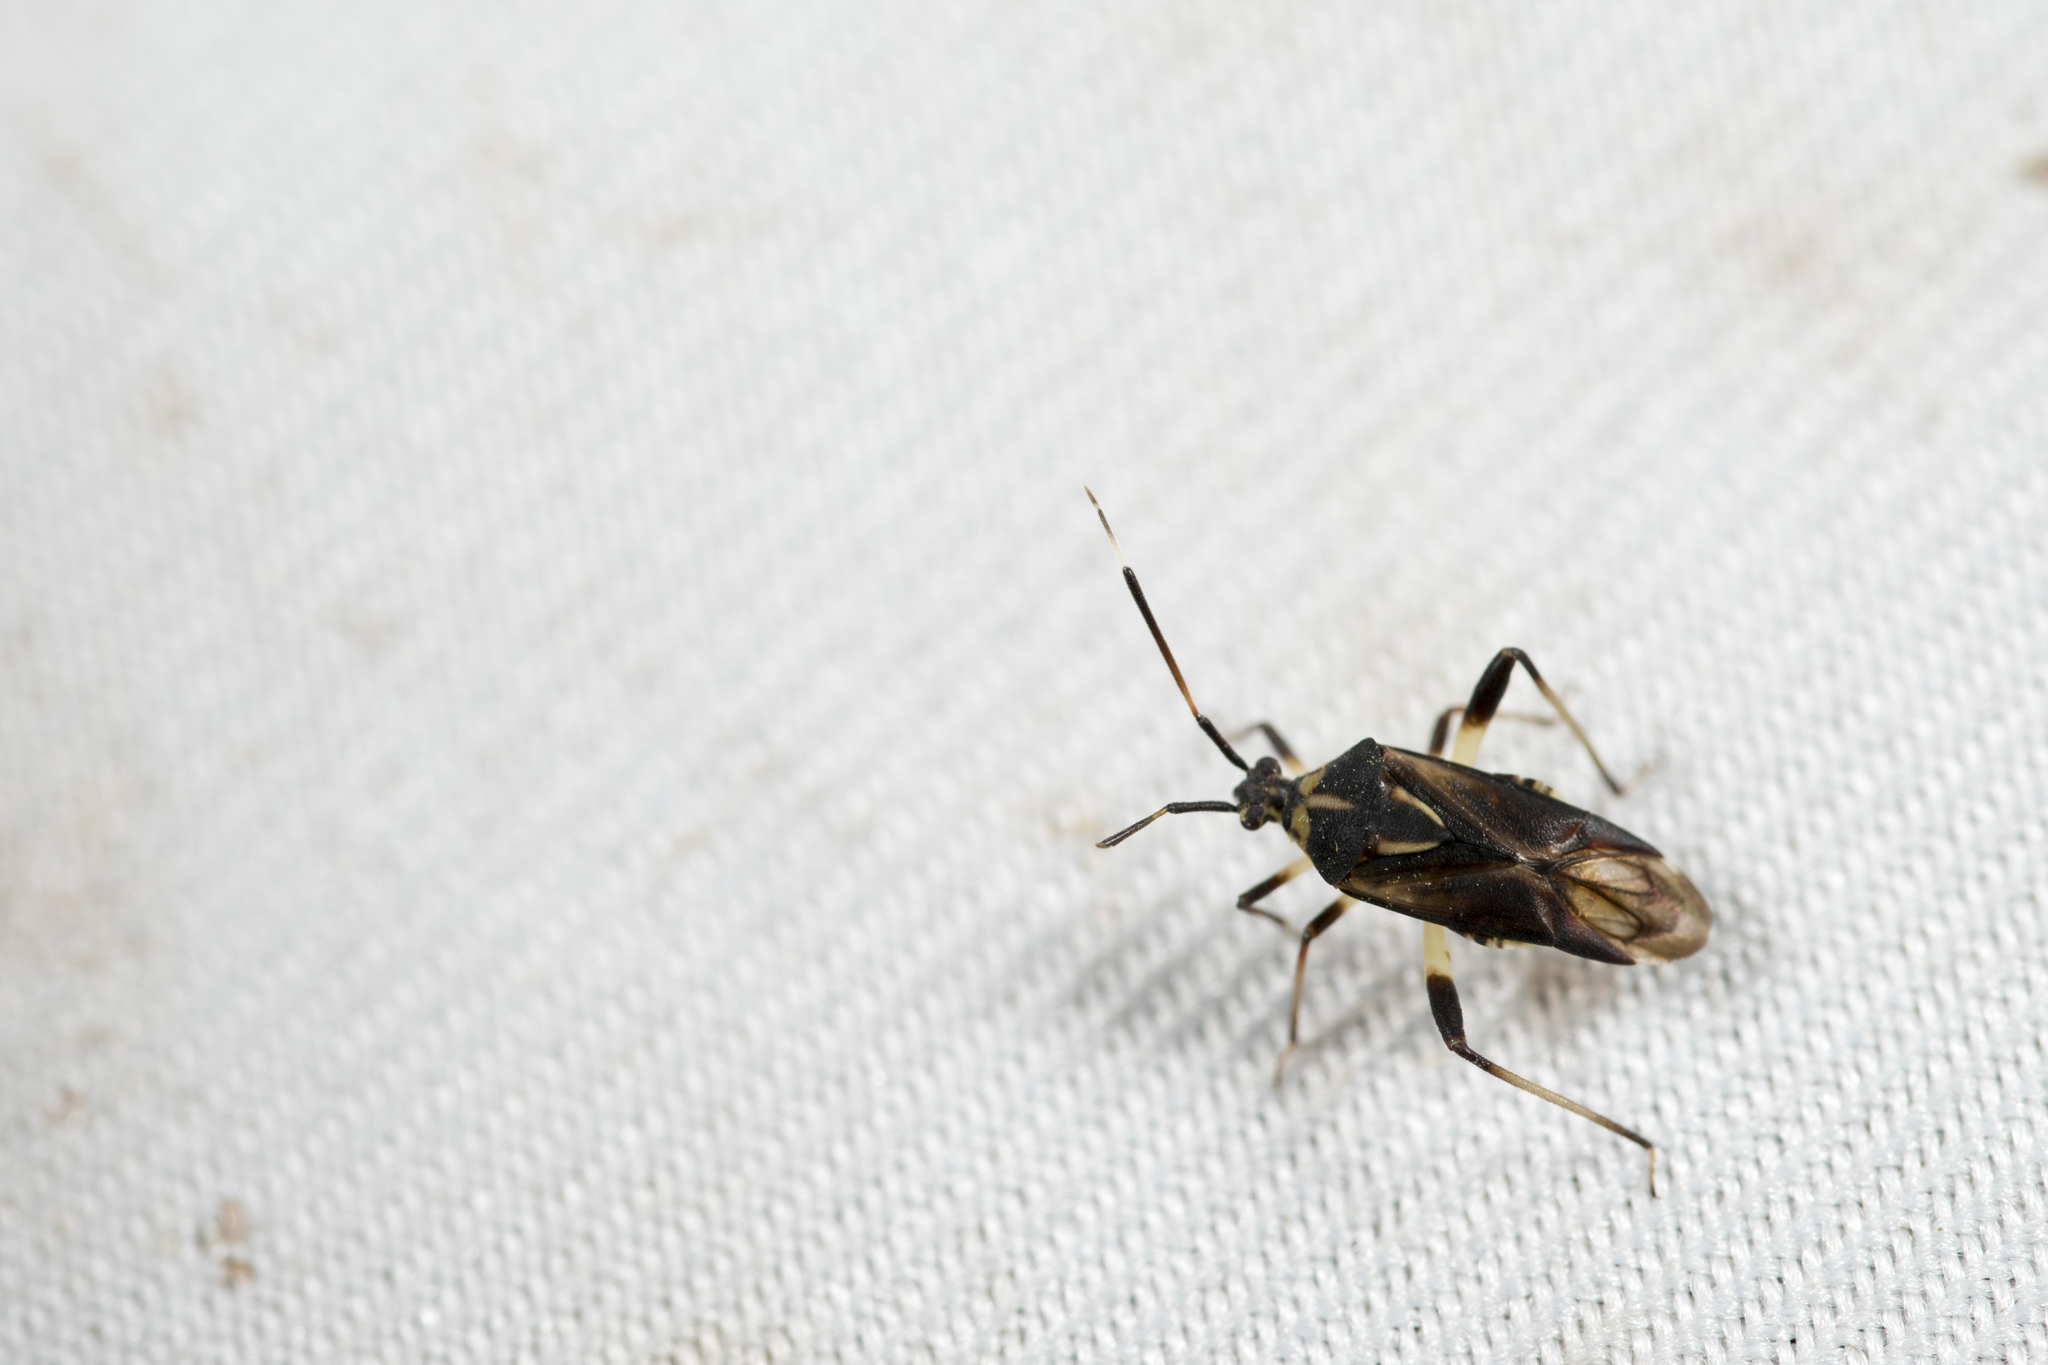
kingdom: Animalia
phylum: Arthropoda
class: Insecta
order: Hemiptera
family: Miridae
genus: Rhopalimiris
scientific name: Rhopalimiris gagai
